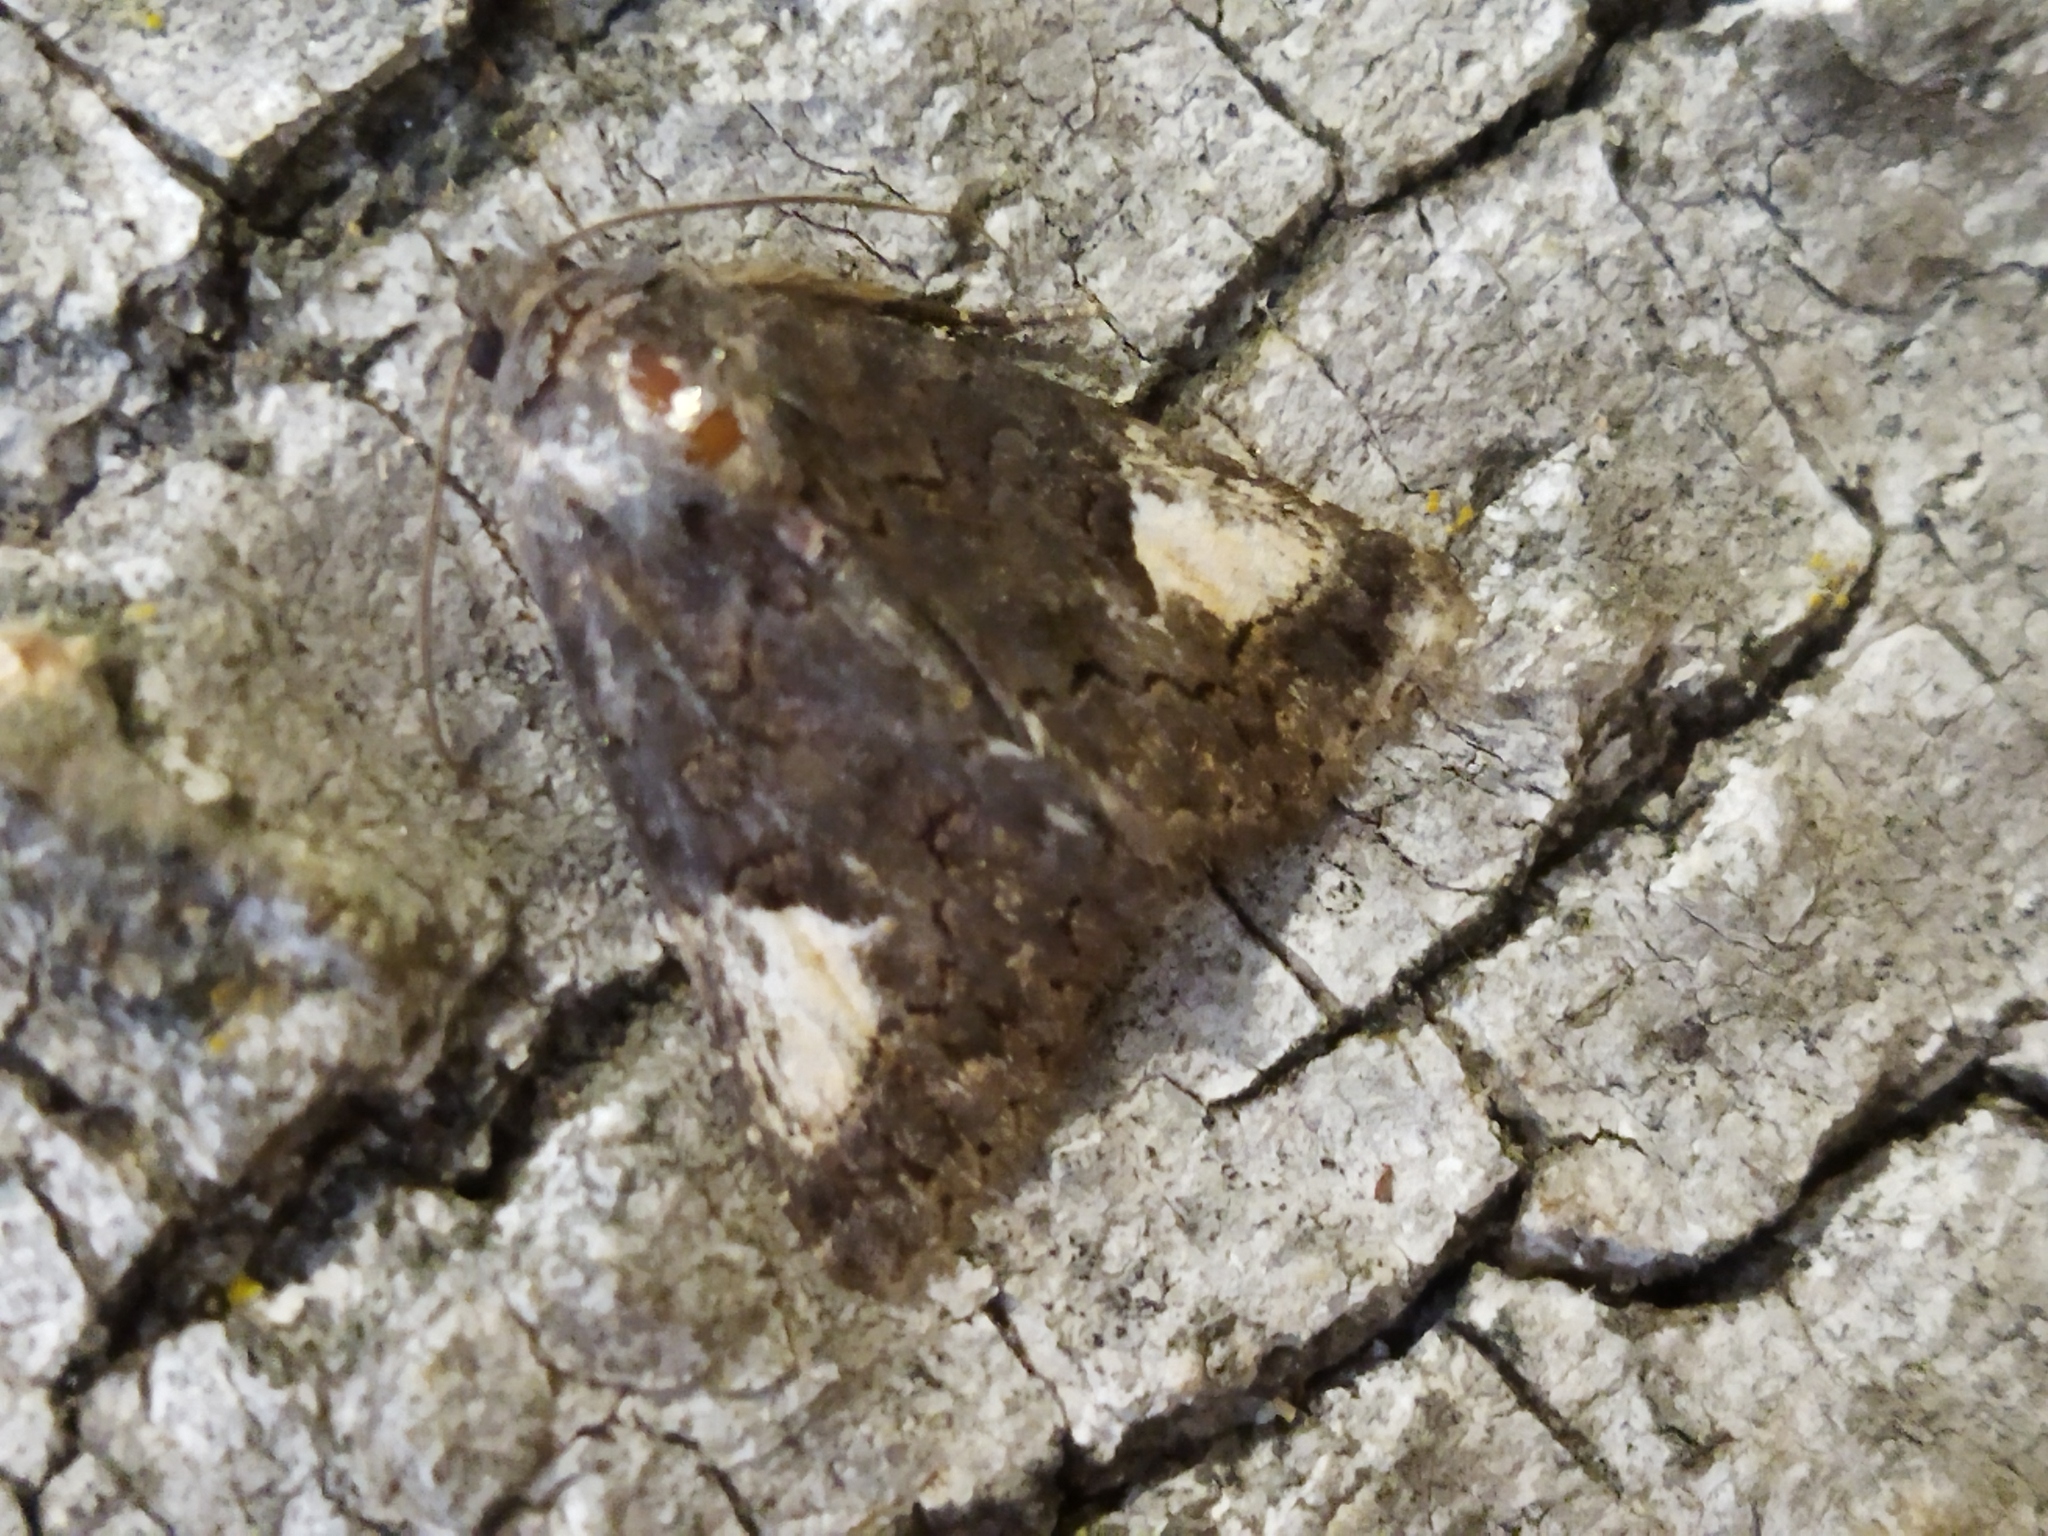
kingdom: Animalia
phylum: Arthropoda
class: Insecta
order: Lepidoptera
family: Noctuidae
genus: Aedia
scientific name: Aedia funesta
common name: The druid
